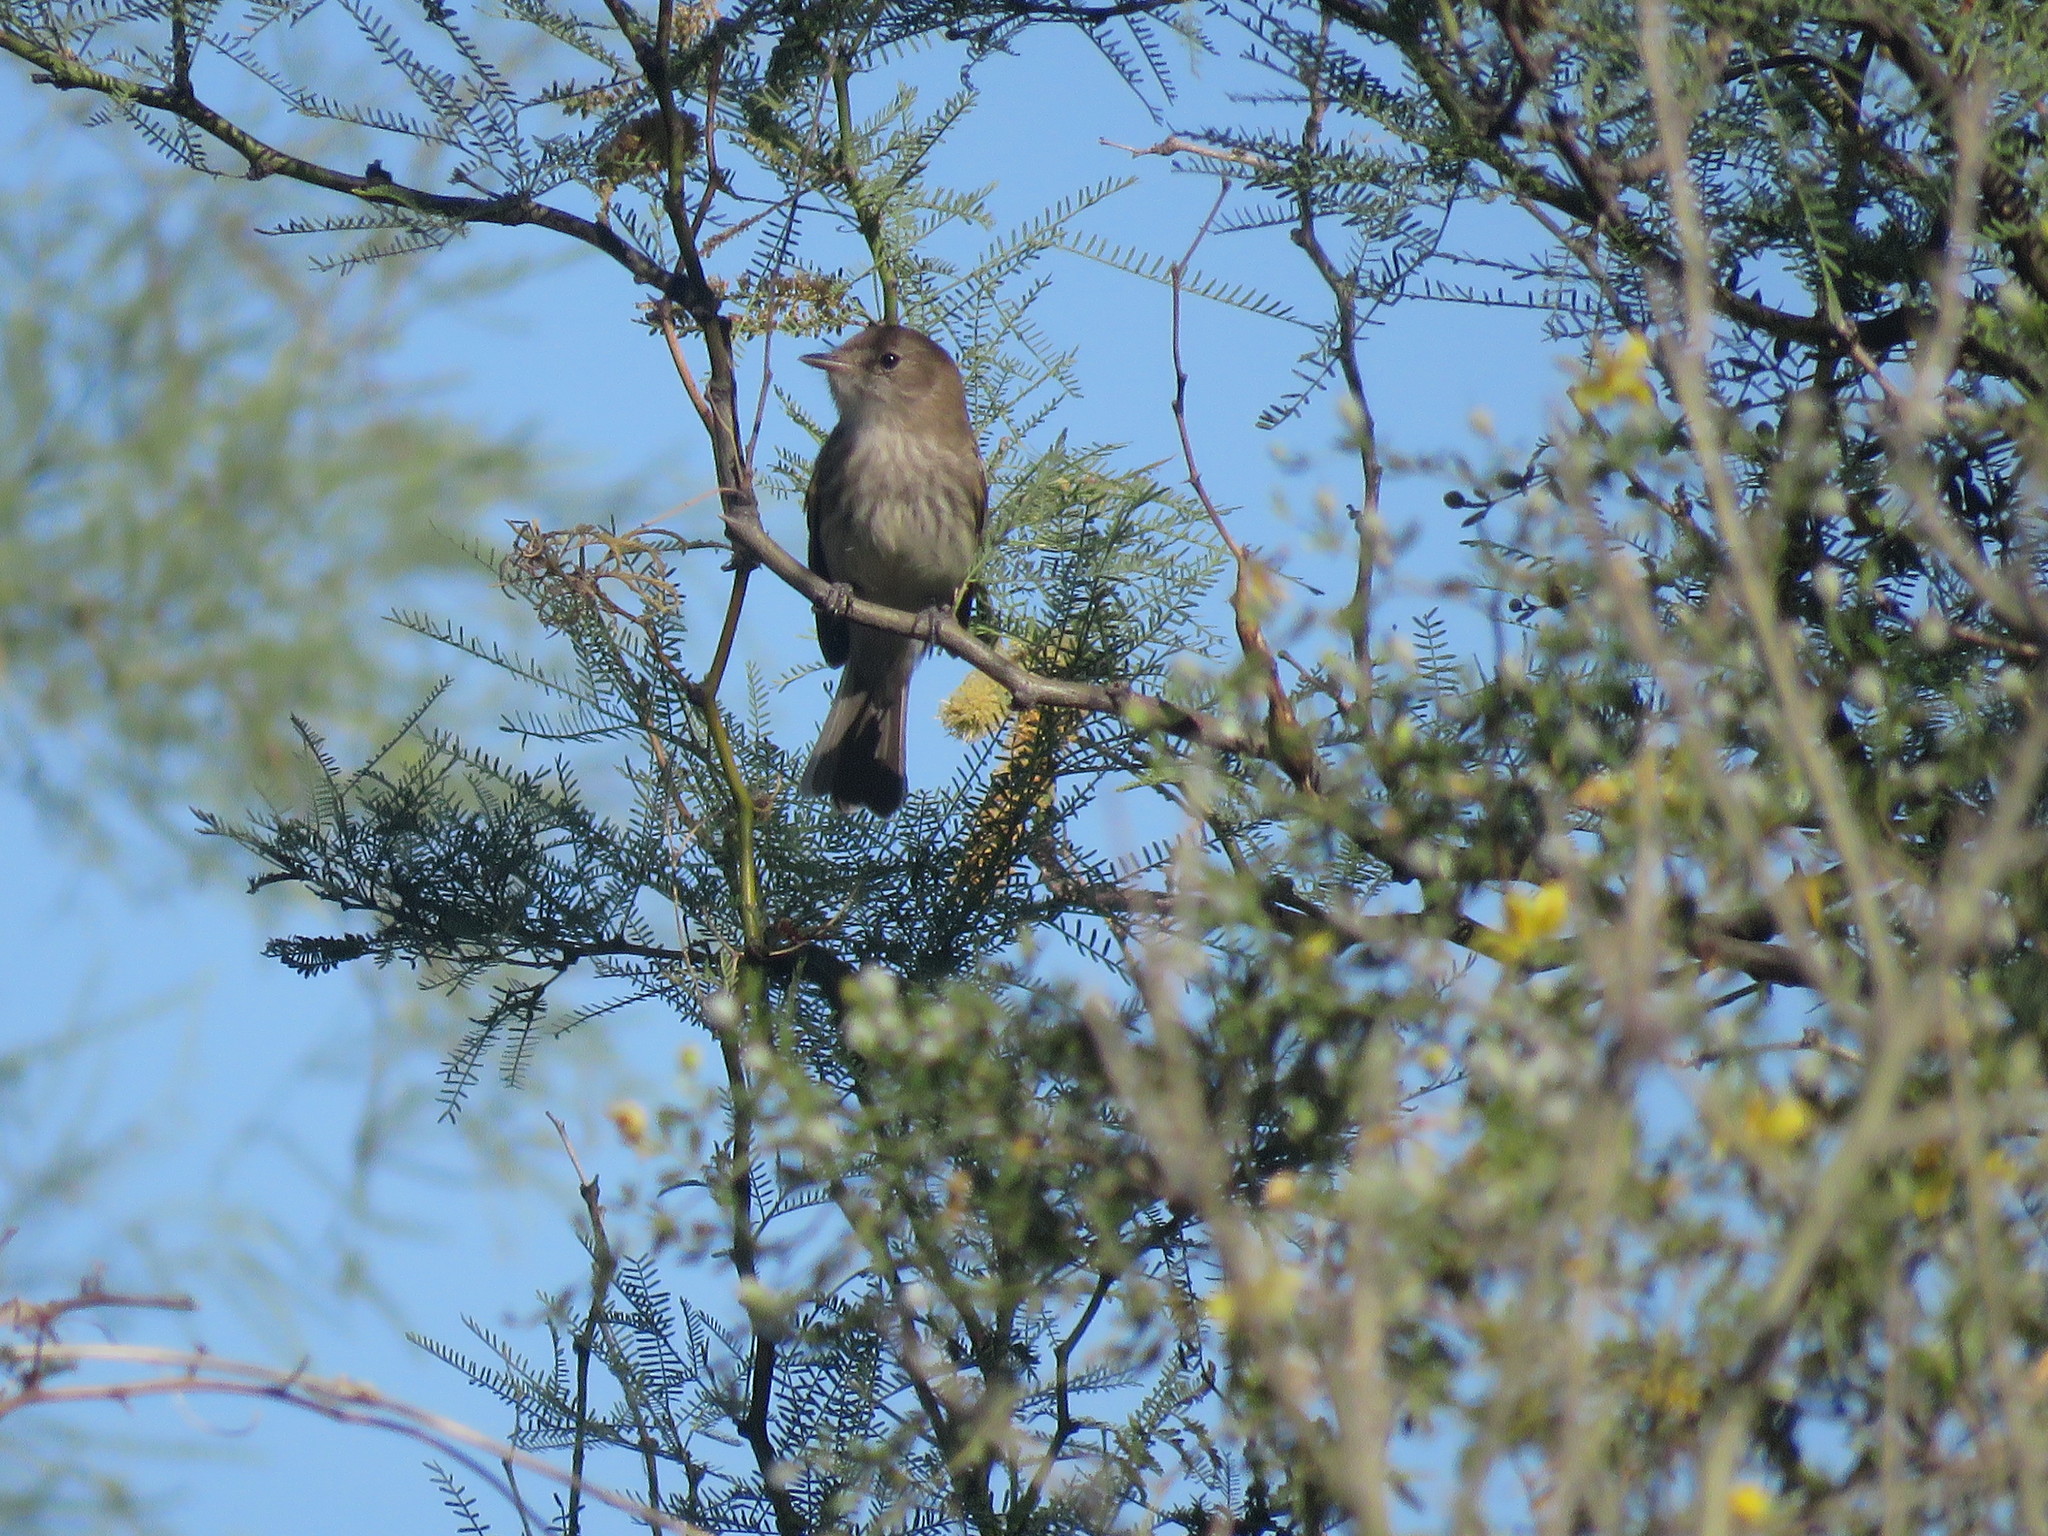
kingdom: Animalia
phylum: Chordata
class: Aves
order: Passeriformes
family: Tyrannidae
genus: Myiophobus
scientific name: Myiophobus fasciatus
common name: Bran-colored flycatcher
